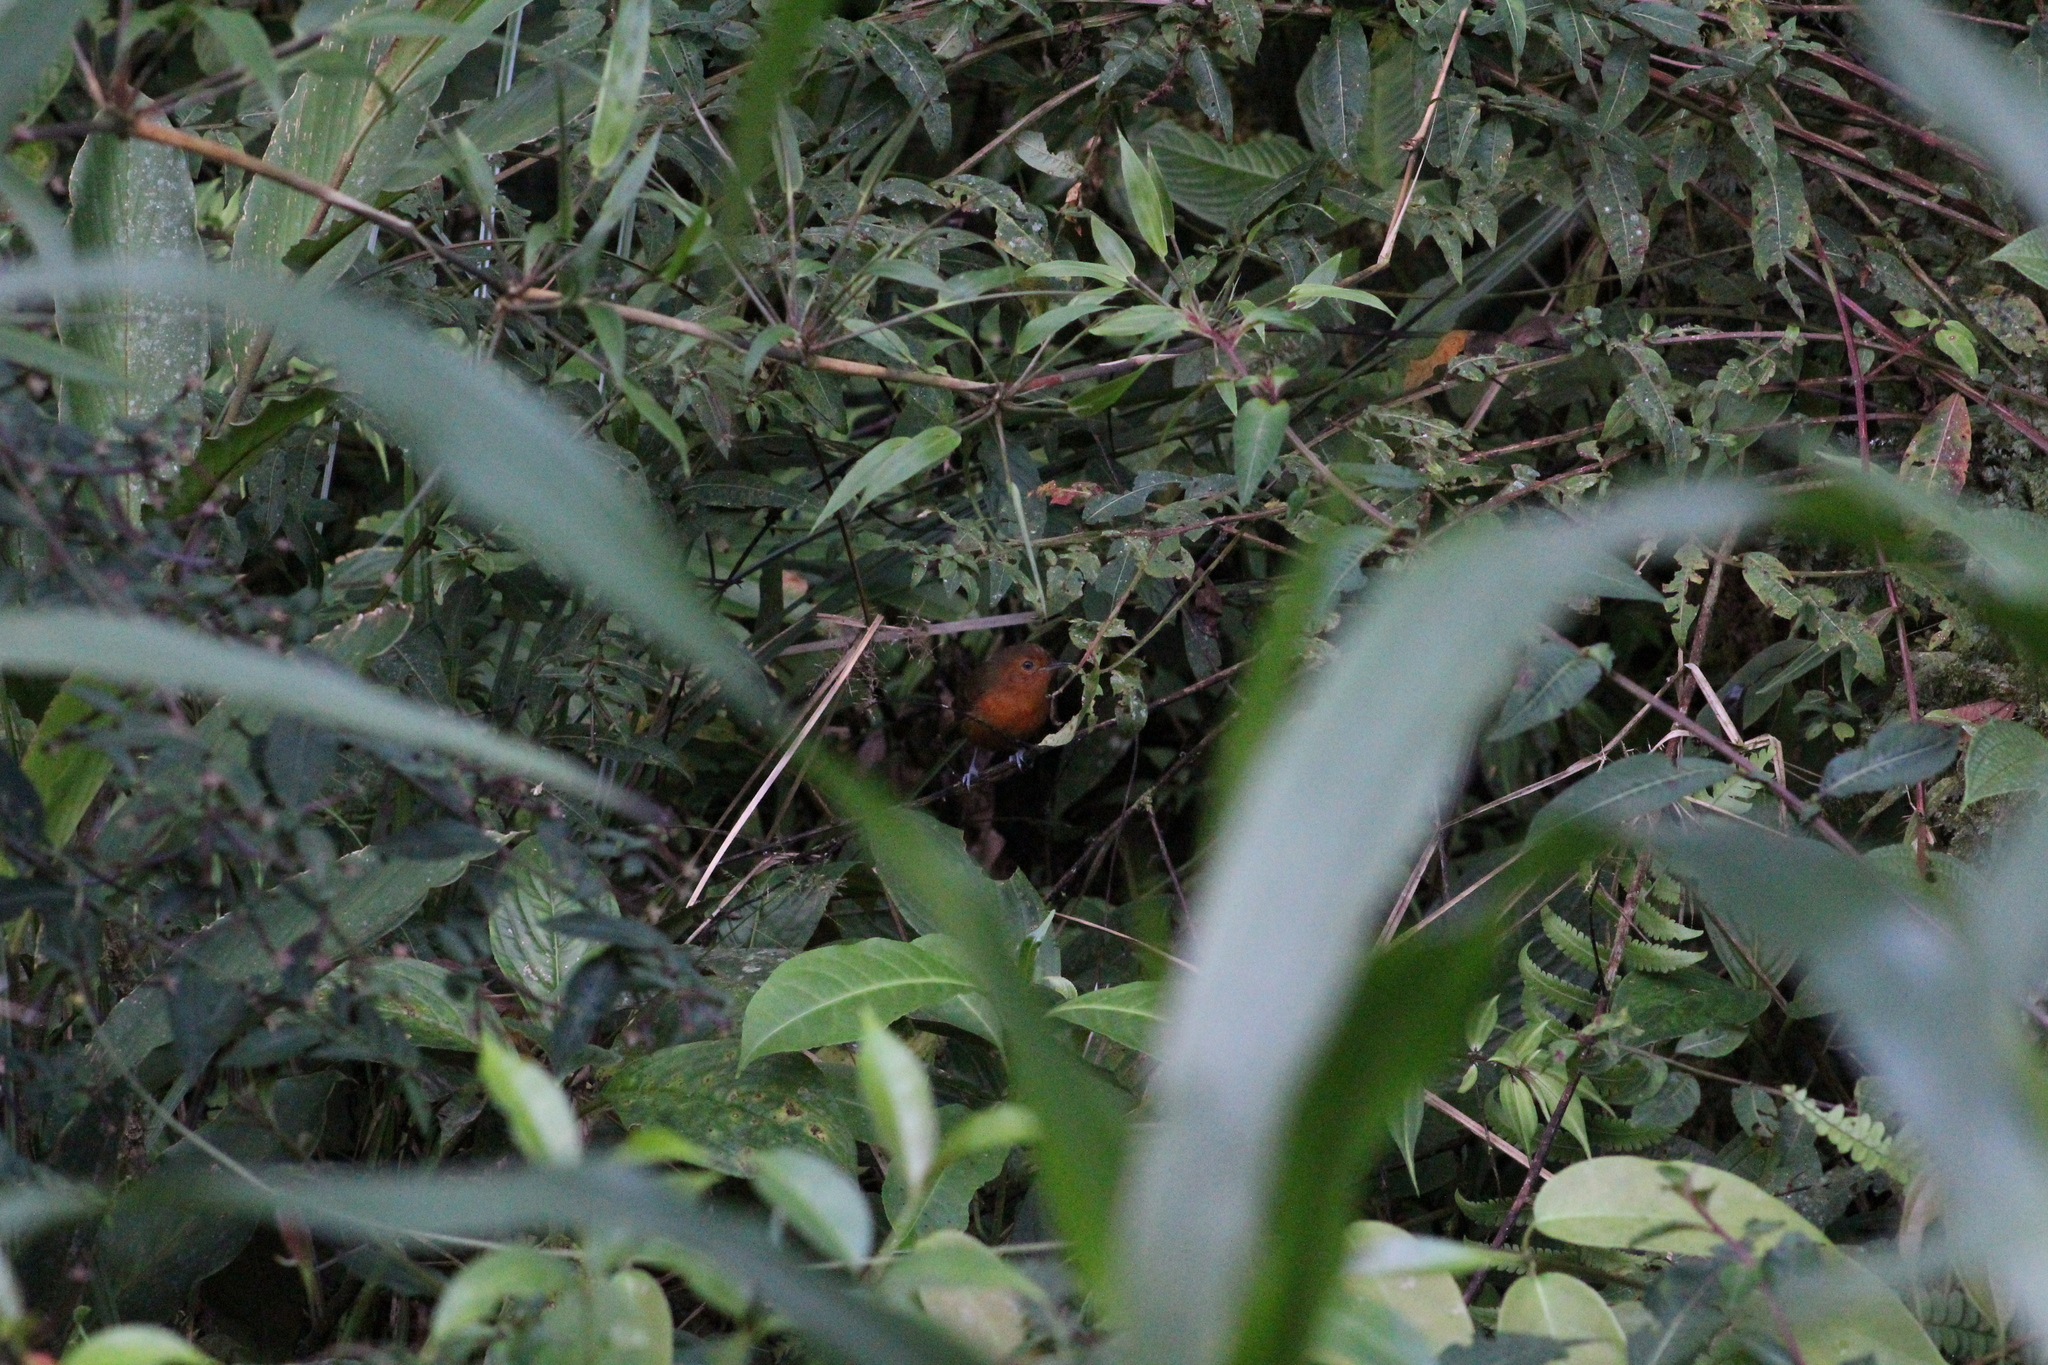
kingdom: Animalia
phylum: Chordata
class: Aves
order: Passeriformes
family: Thamnophilidae
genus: Cercomacra
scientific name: Cercomacra nigrescens
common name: Blackish antbird
